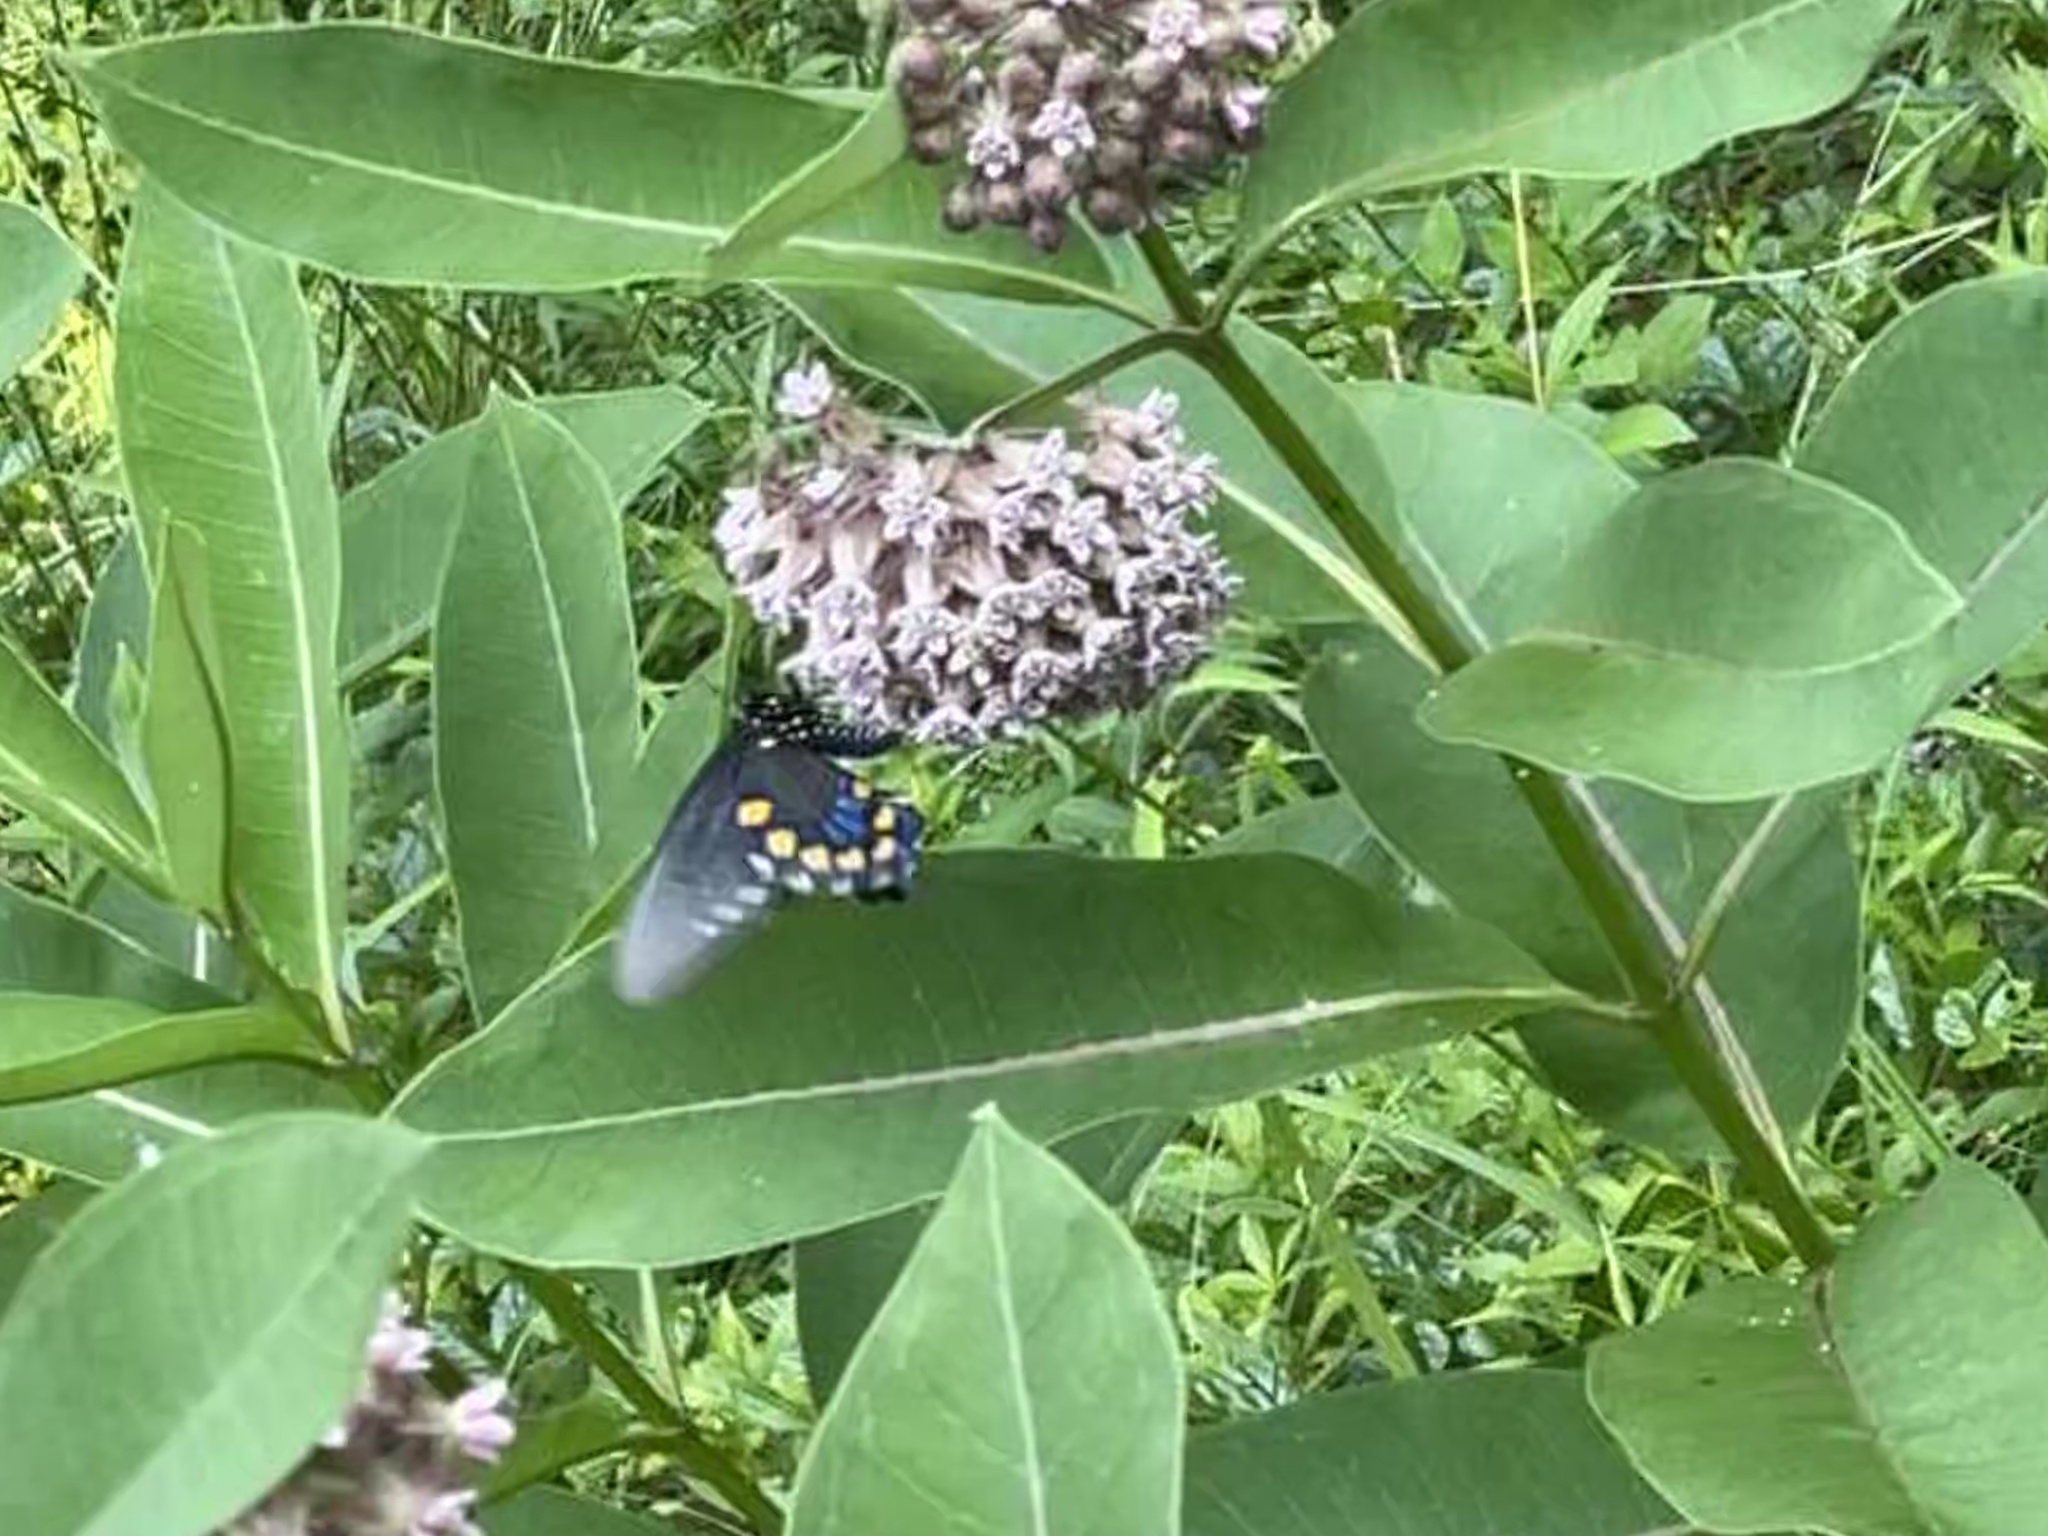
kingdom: Animalia
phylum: Arthropoda
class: Insecta
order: Lepidoptera
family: Papilionidae
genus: Battus
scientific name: Battus philenor
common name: Pipevine swallowtail
